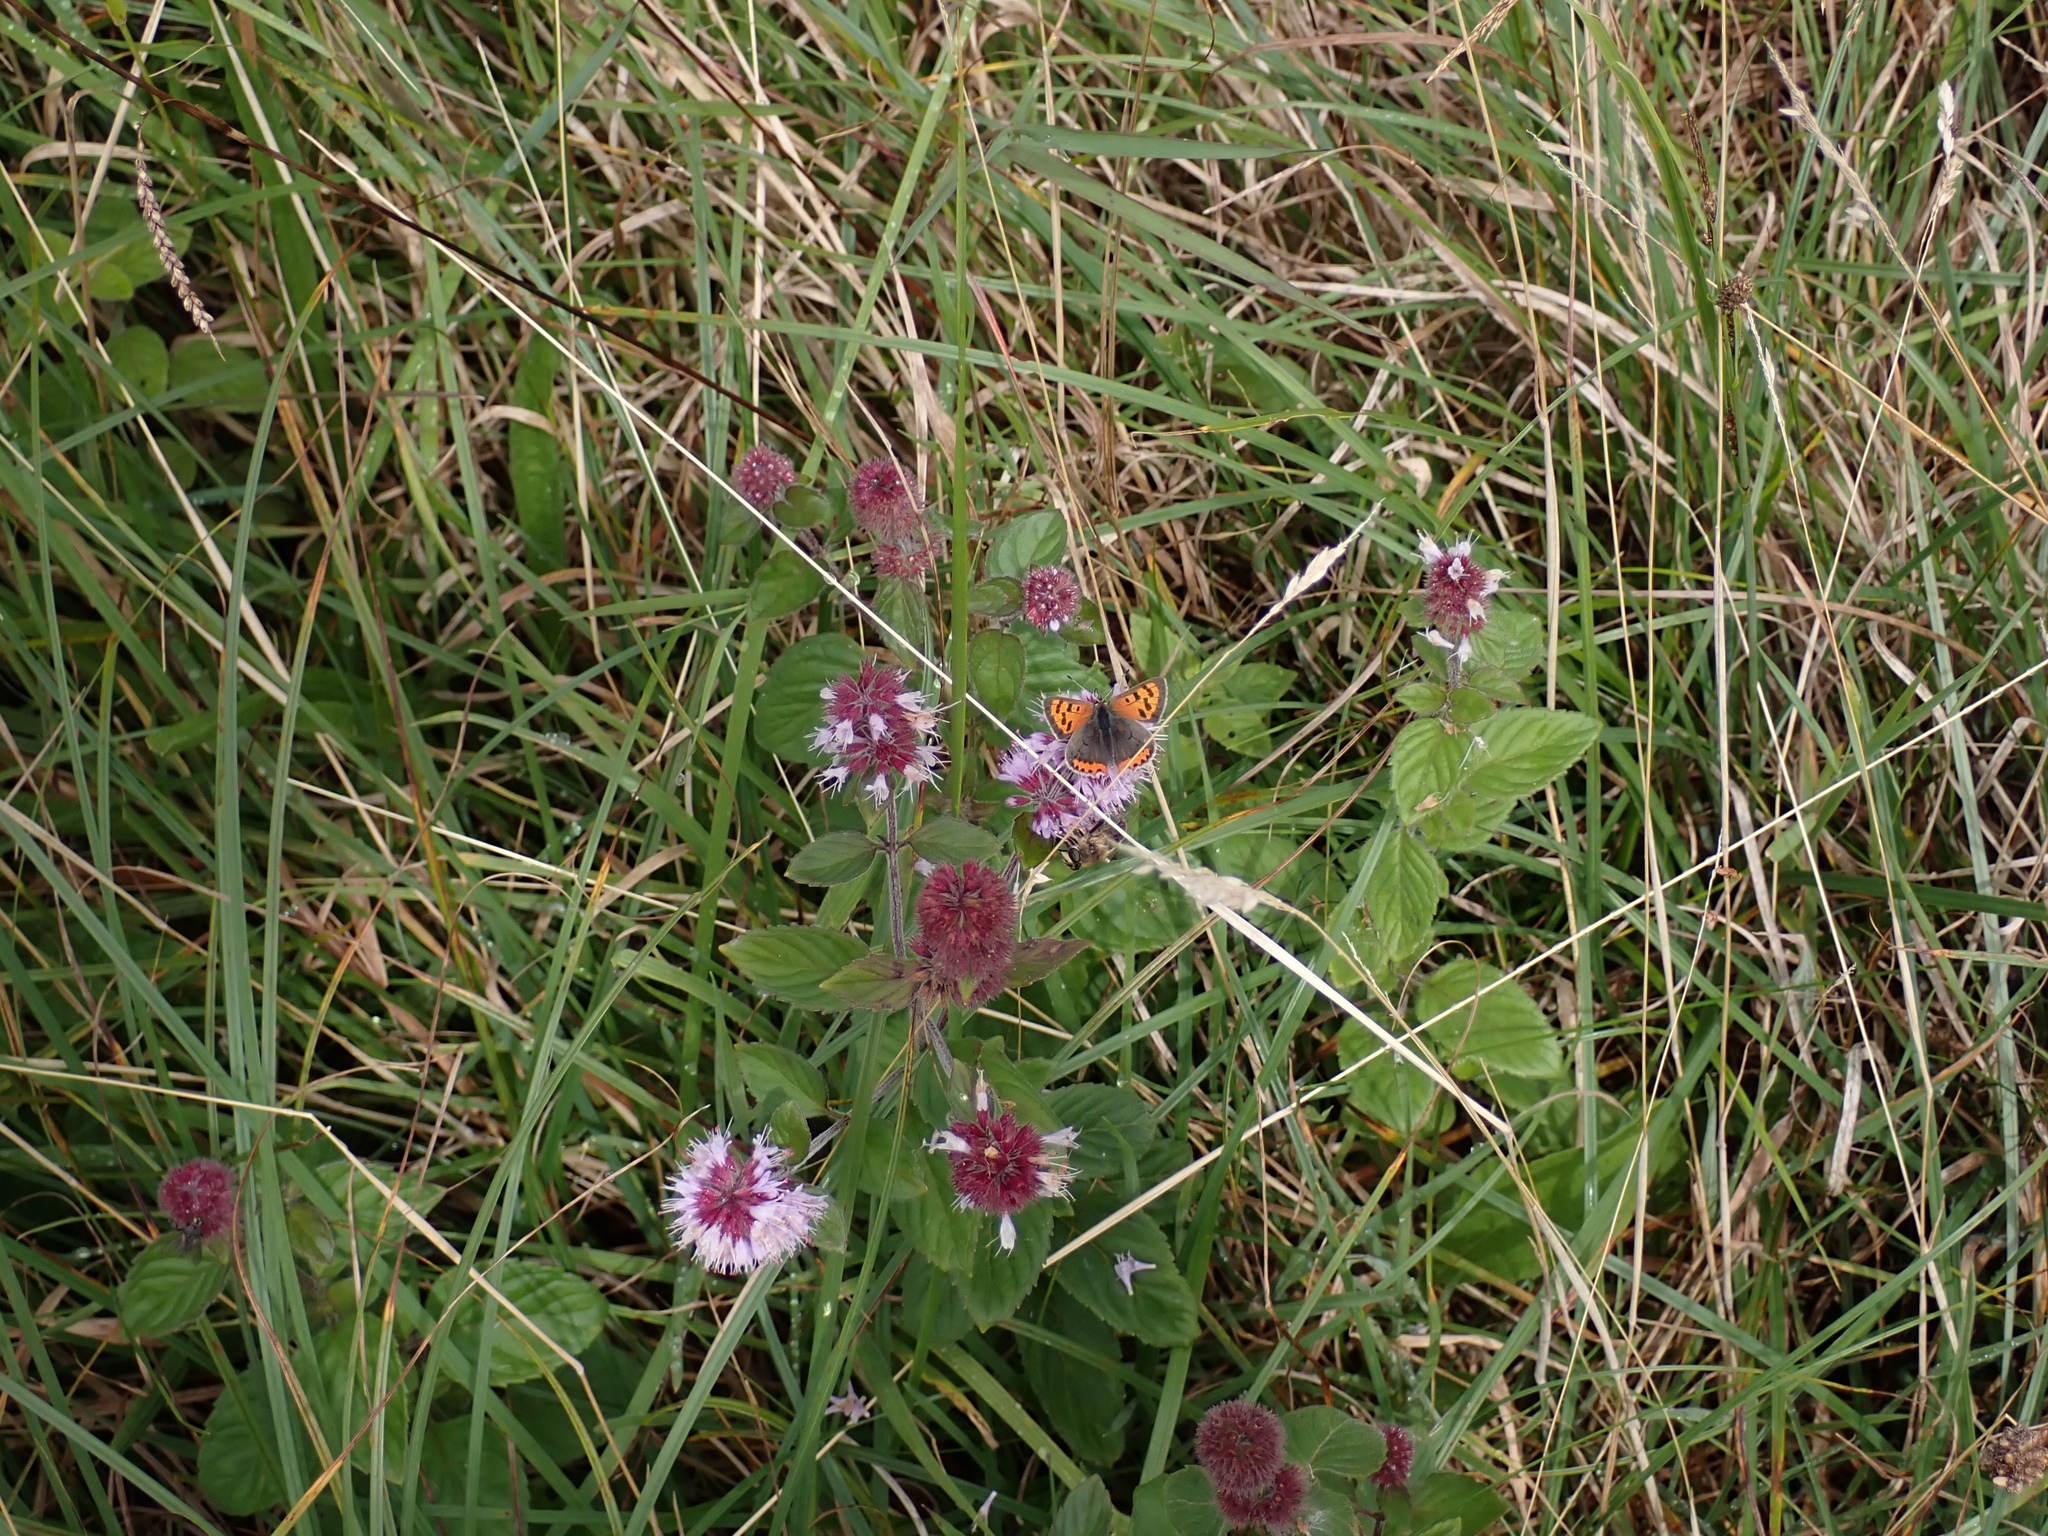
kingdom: Plantae
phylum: Tracheophyta
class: Magnoliopsida
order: Lamiales
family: Lamiaceae
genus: Mentha
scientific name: Mentha aquatica
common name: Water mint
